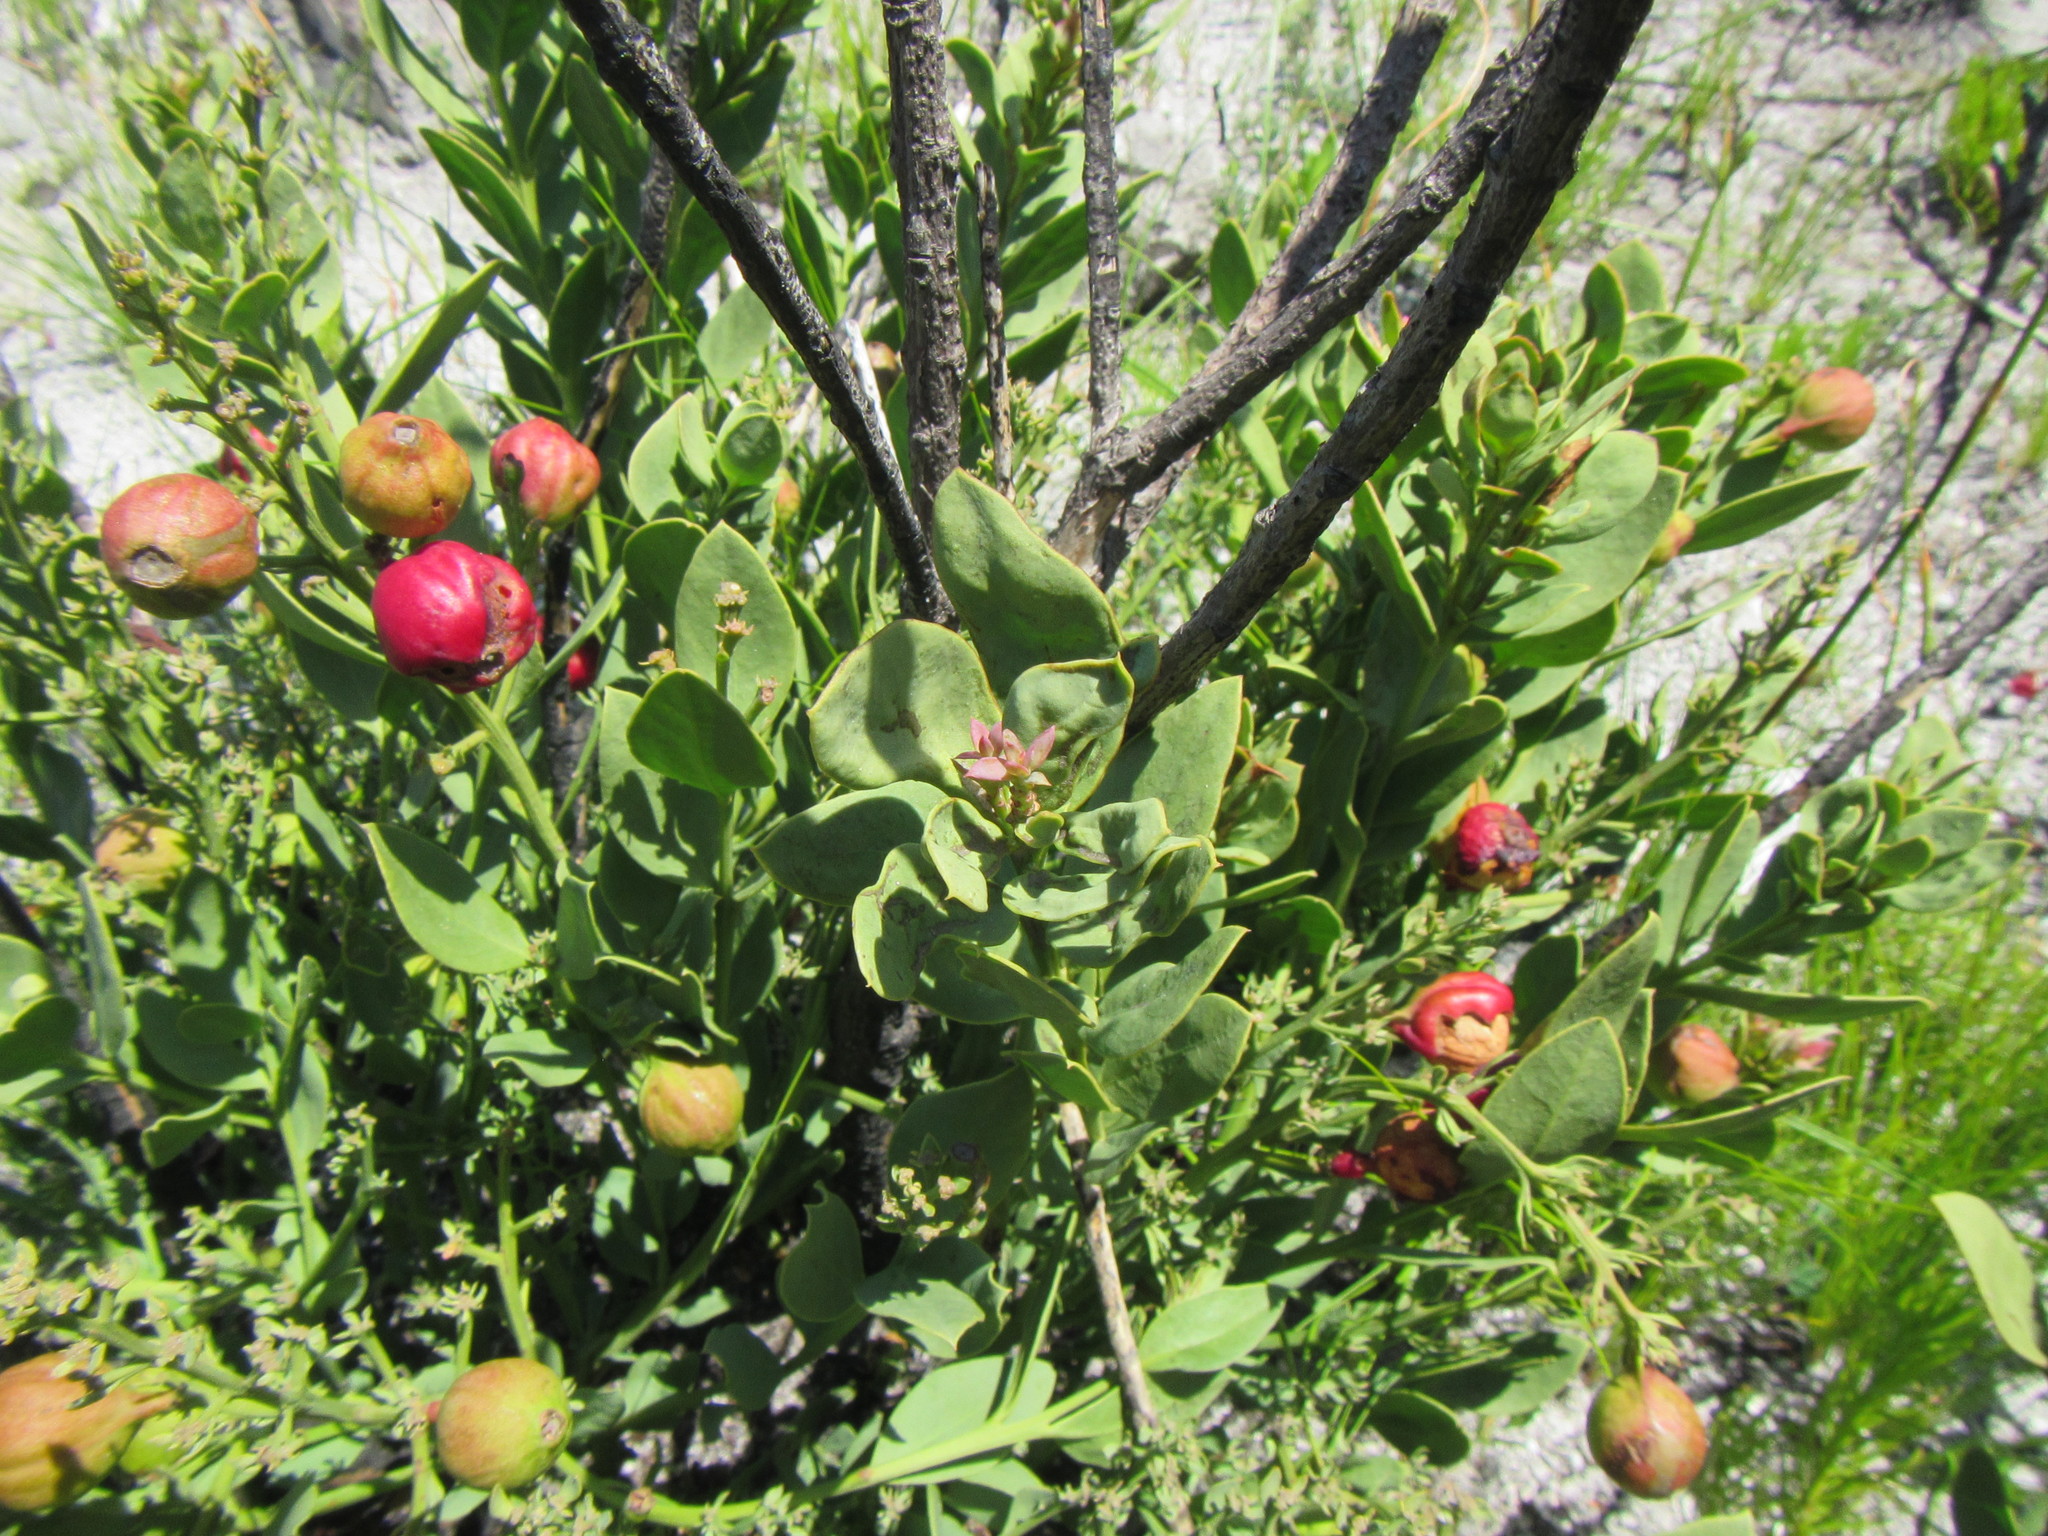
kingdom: Plantae
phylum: Tracheophyta
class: Magnoliopsida
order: Santalales
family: Santalaceae
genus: Osyris
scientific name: Osyris speciosa
